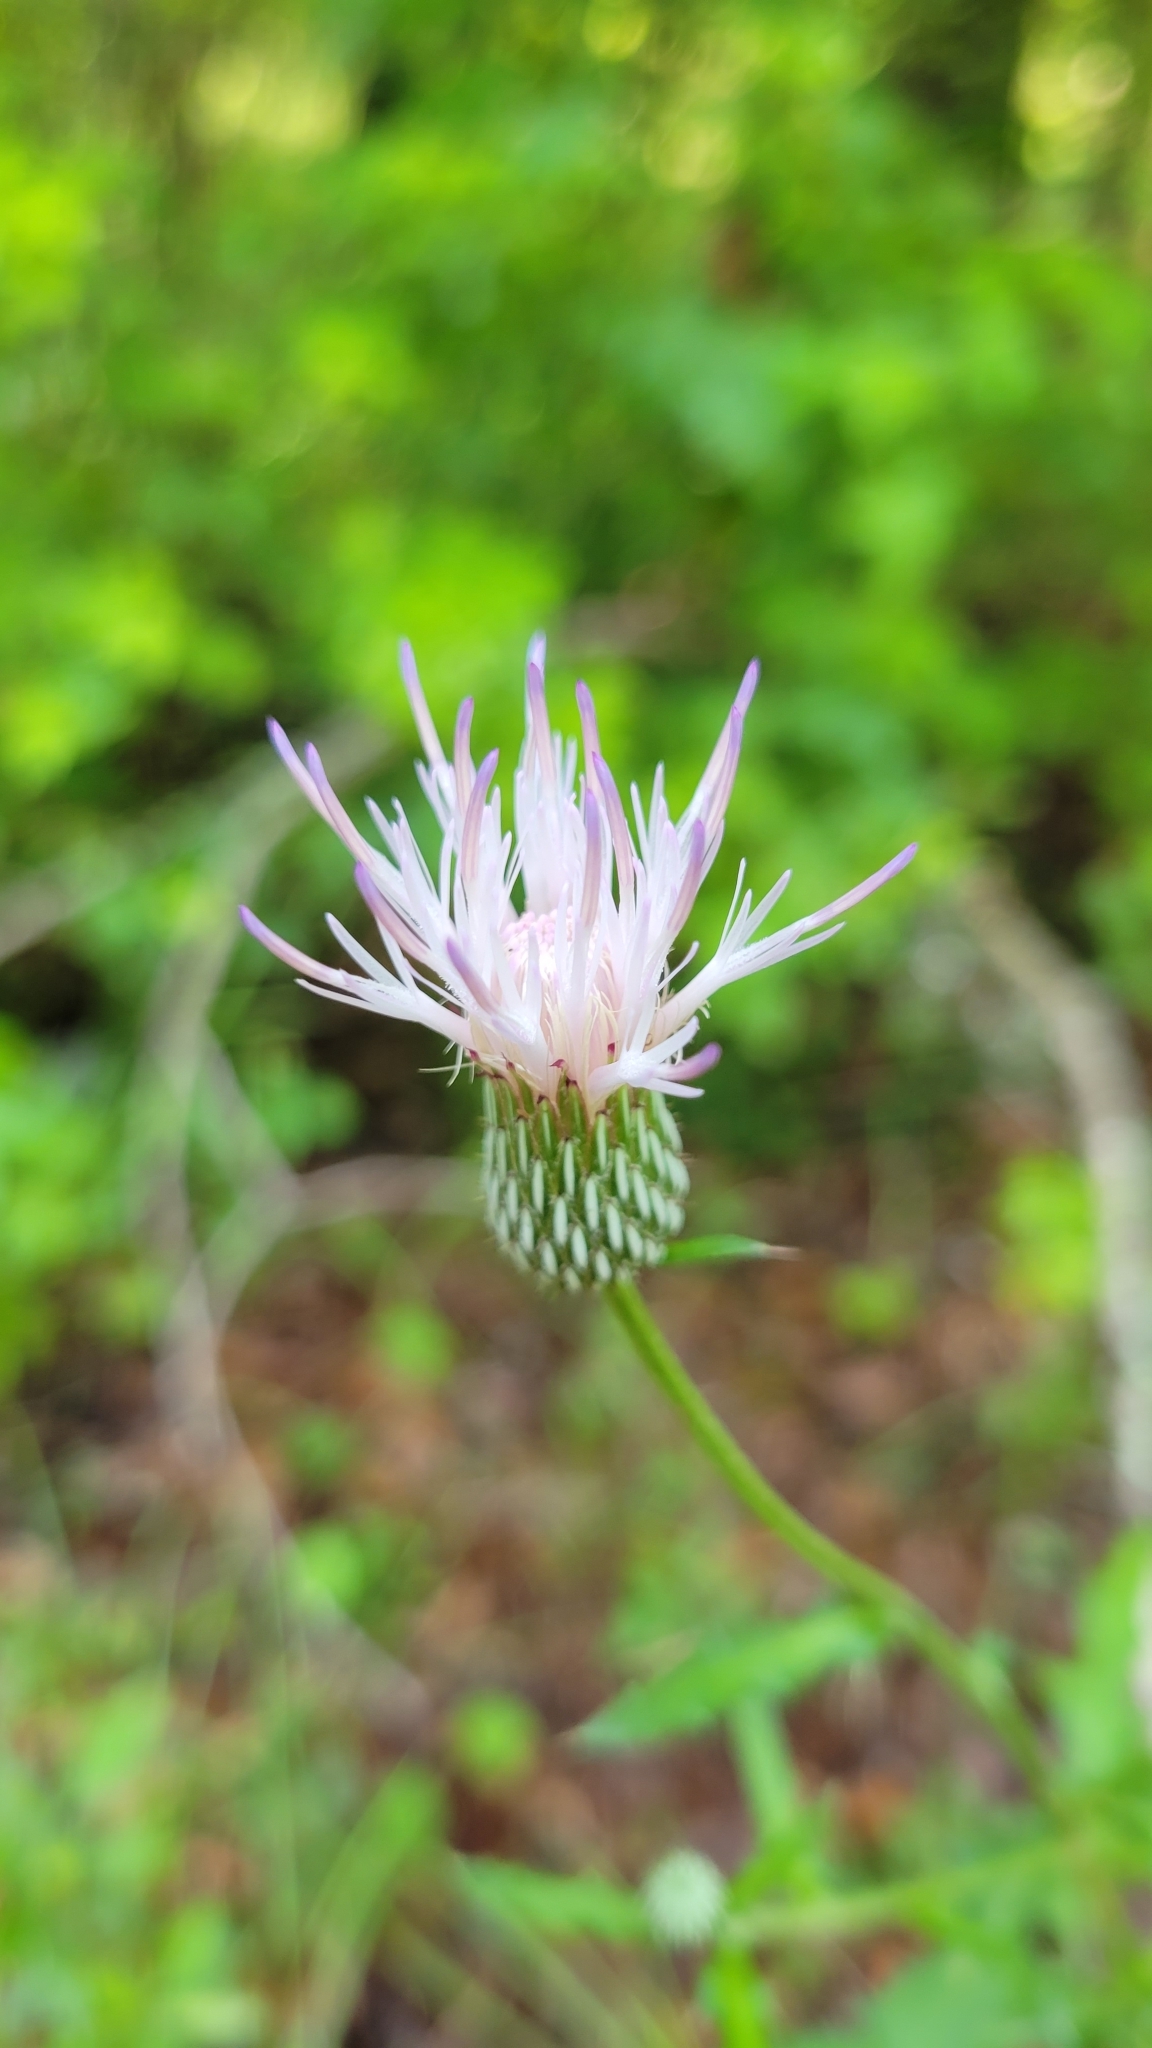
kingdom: Plantae
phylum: Tracheophyta
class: Magnoliopsida
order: Asterales
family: Asteraceae
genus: Cirsium
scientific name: Cirsium nuttalii
